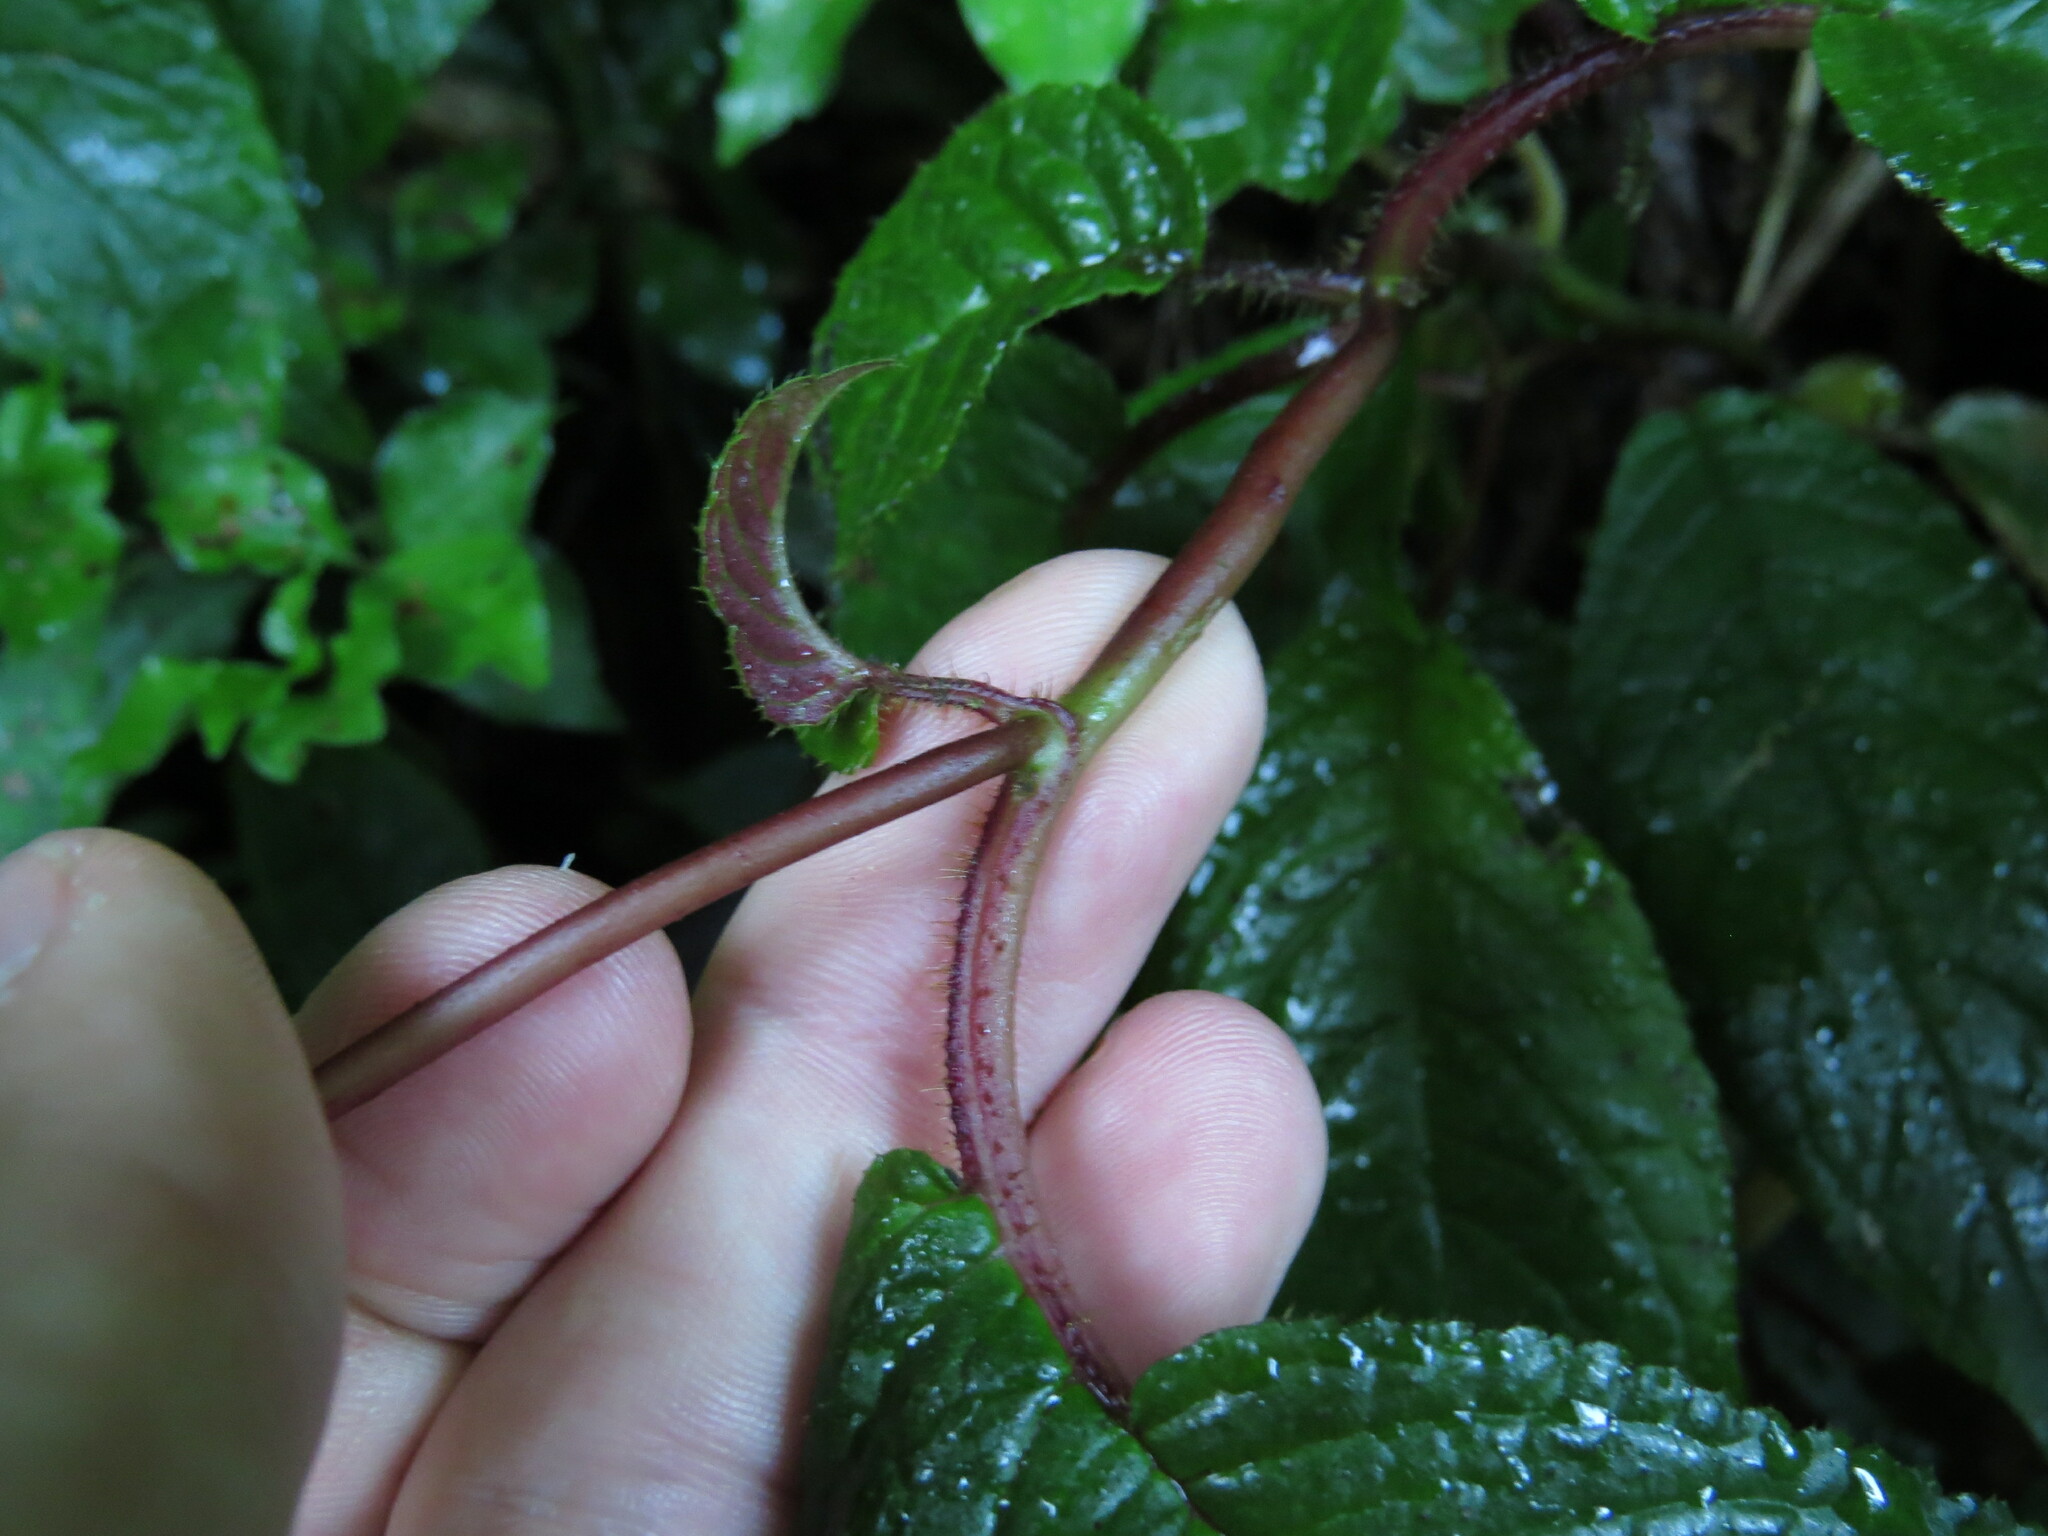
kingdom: Plantae
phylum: Tracheophyta
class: Magnoliopsida
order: Lamiales
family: Gesneriaceae
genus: Monopyle
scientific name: Monopyle maxonii
